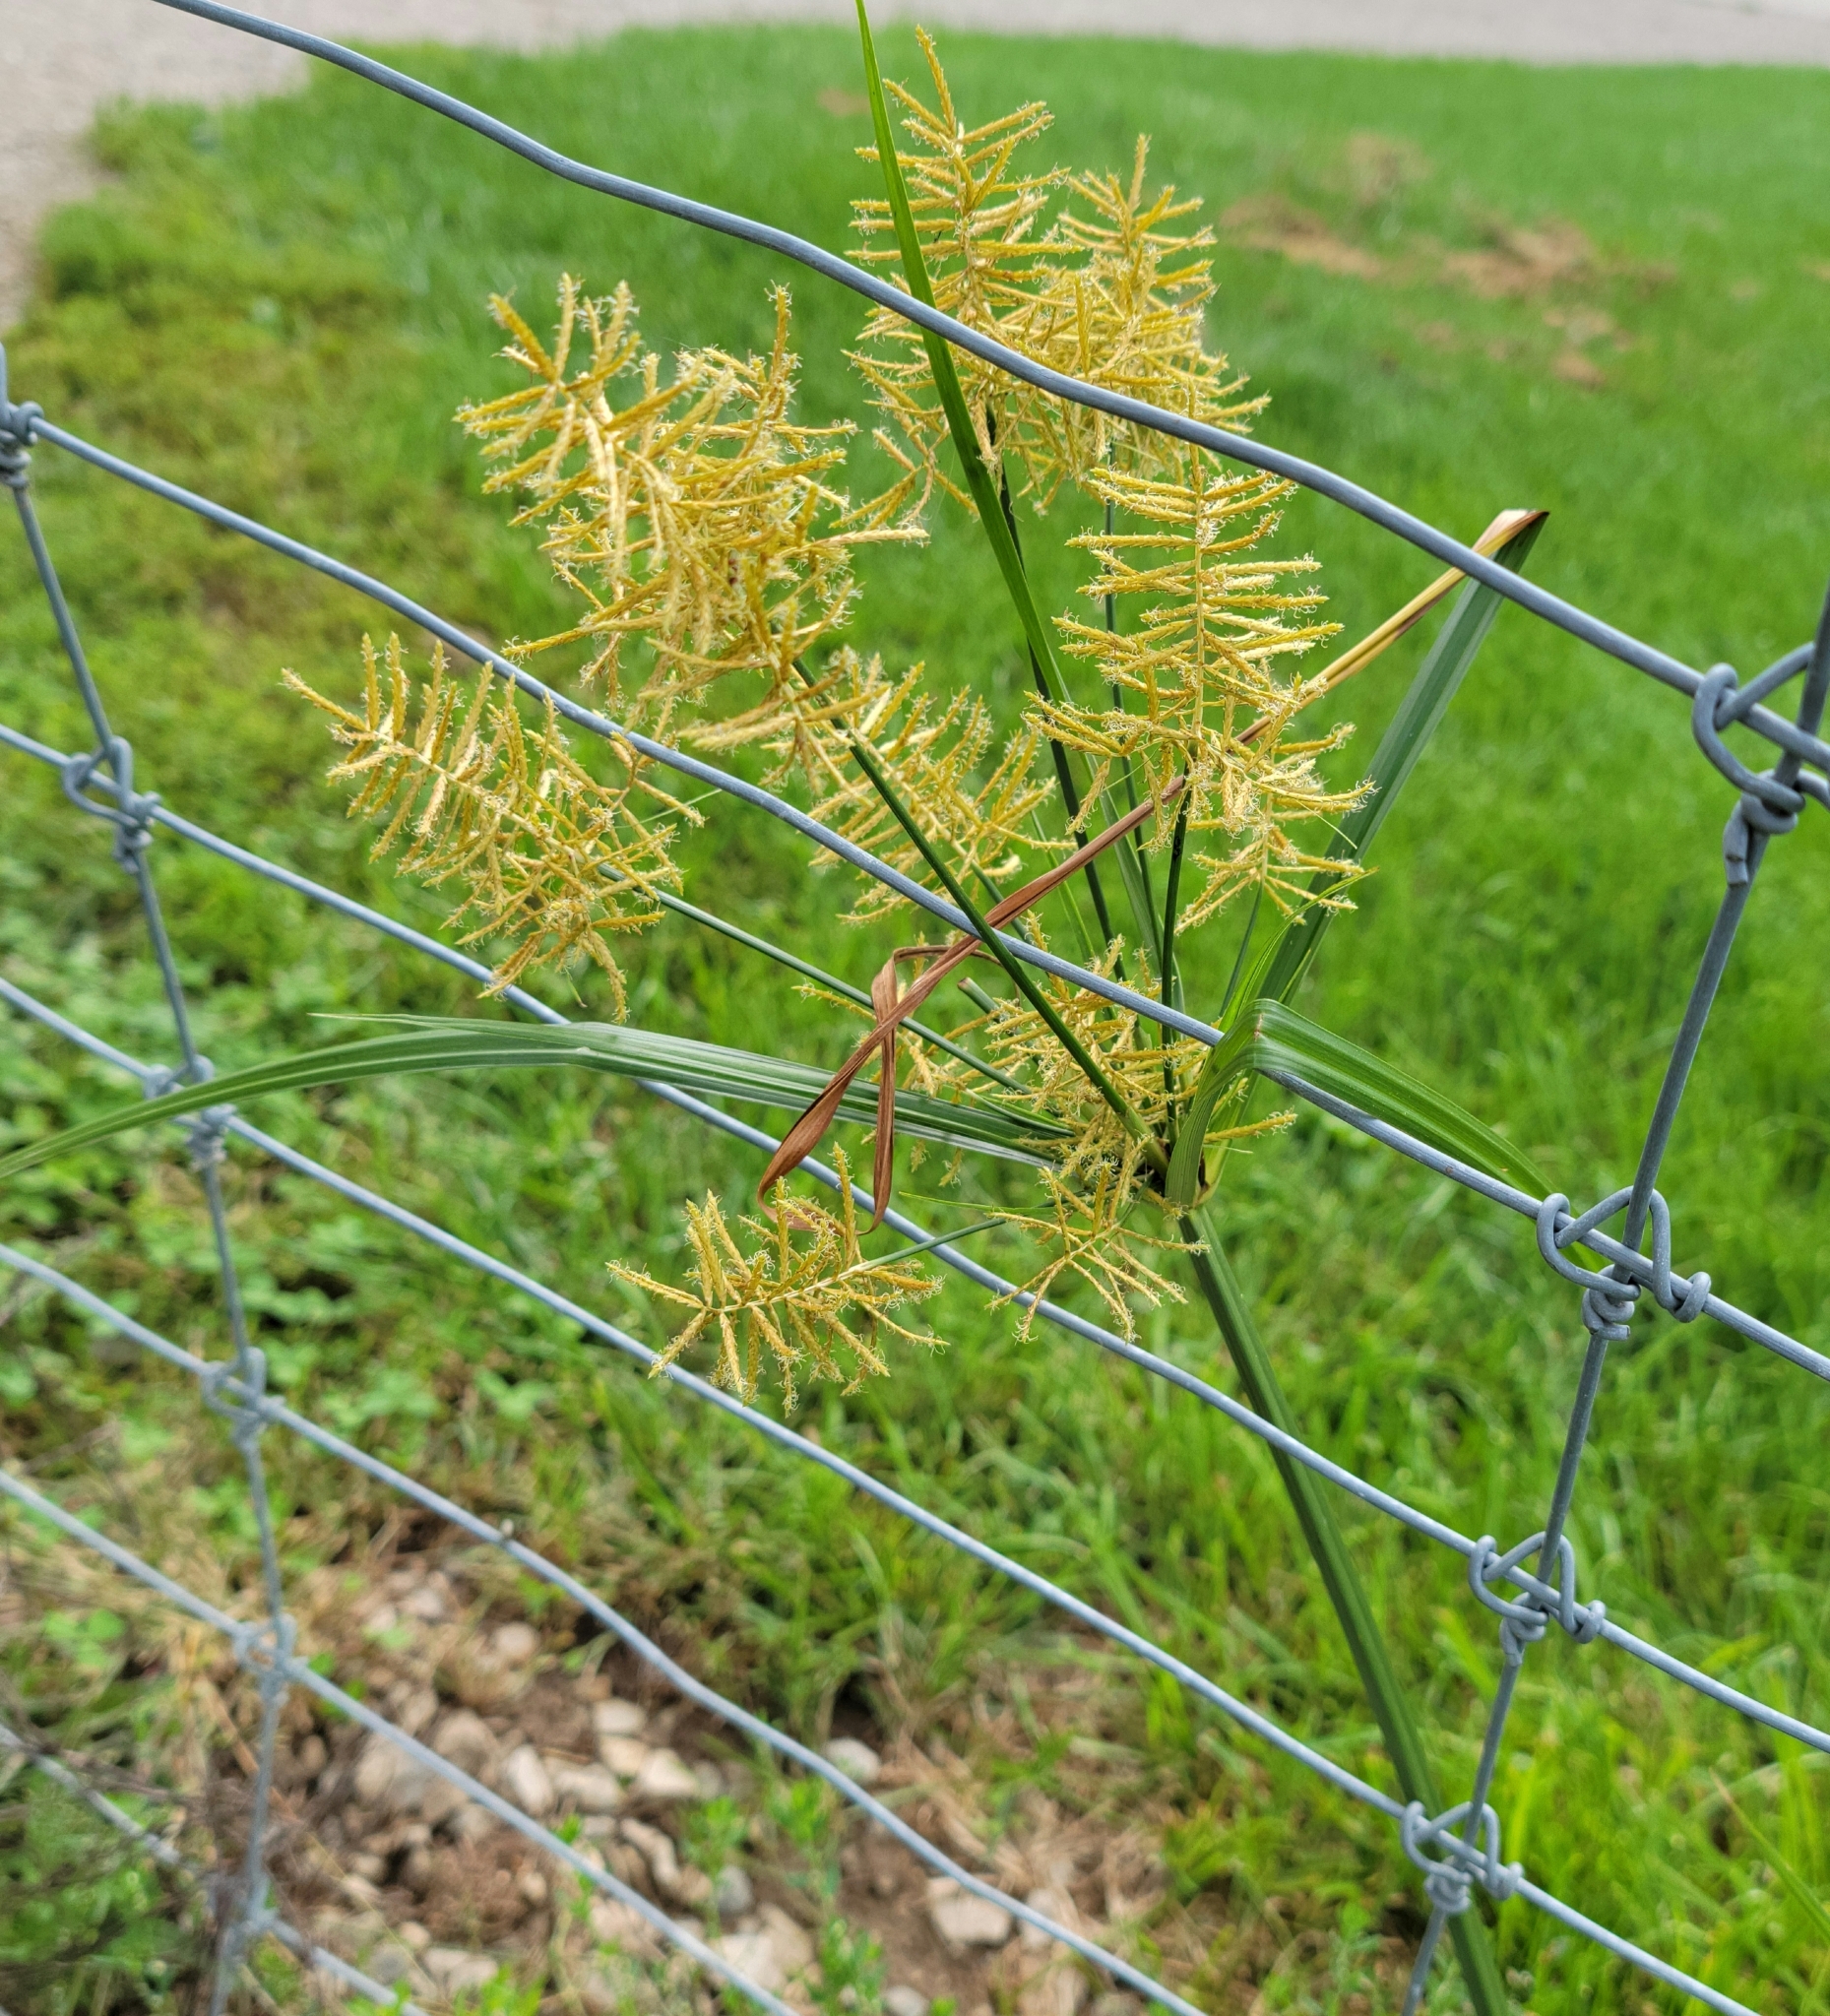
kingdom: Plantae
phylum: Tracheophyta
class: Liliopsida
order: Poales
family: Cyperaceae
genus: Cyperus
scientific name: Cyperus esculentus
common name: Yellow nutsedge
